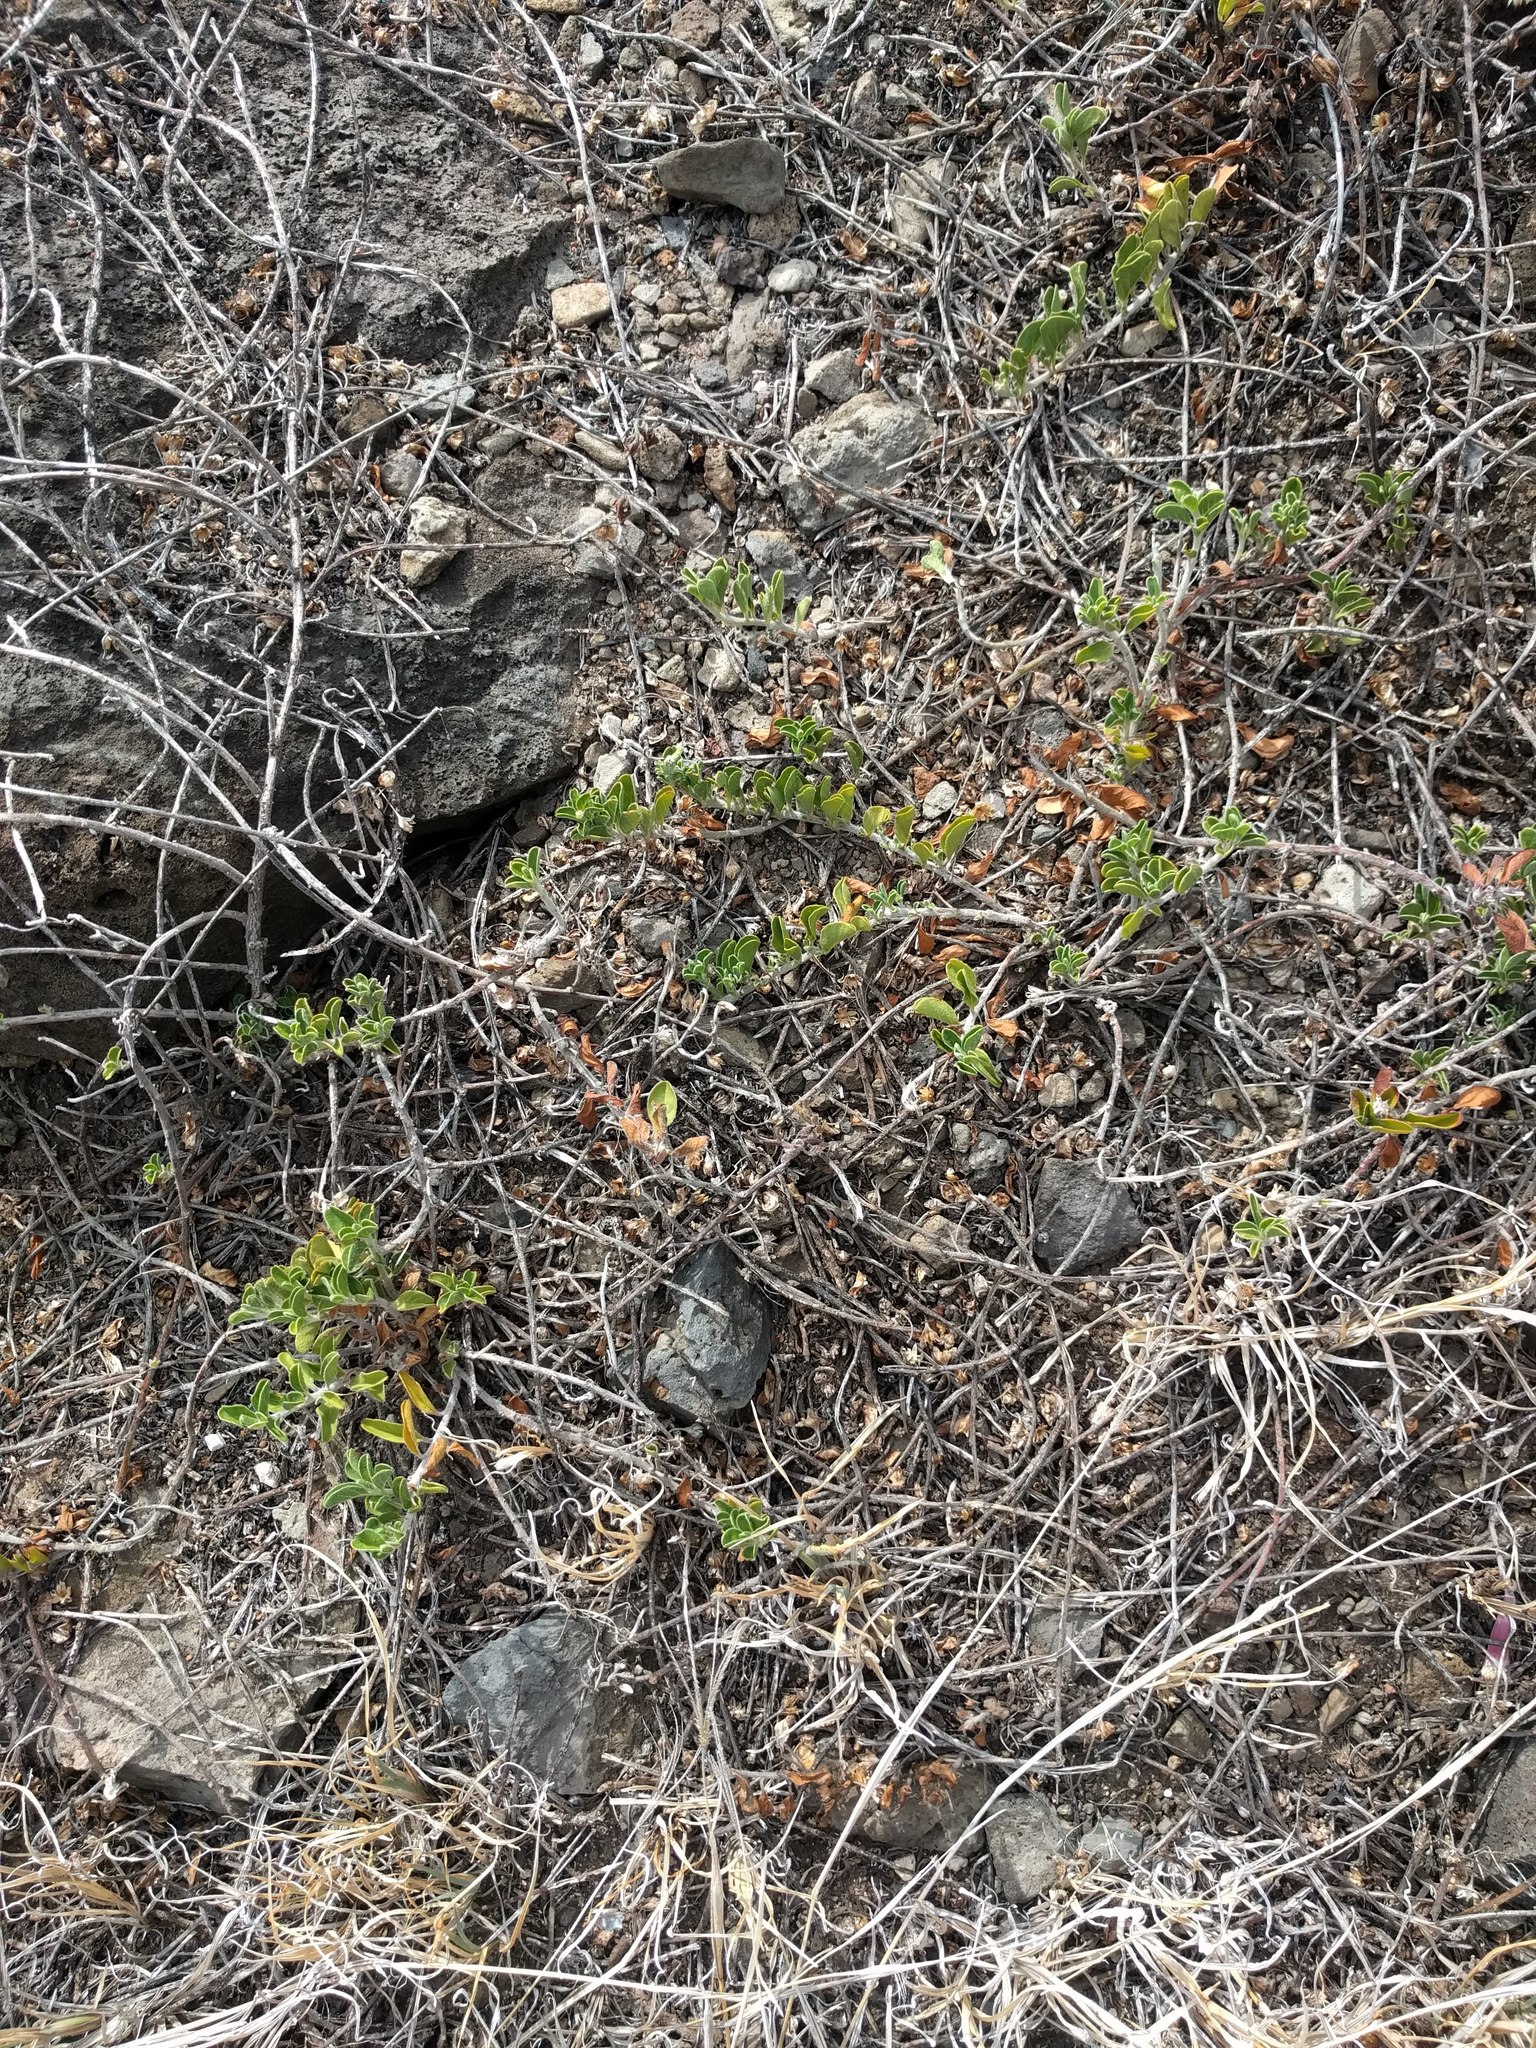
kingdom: Plantae
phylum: Tracheophyta
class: Magnoliopsida
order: Solanales
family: Convolvulaceae
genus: Jacquemontia
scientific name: Jacquemontia sandwicensis
